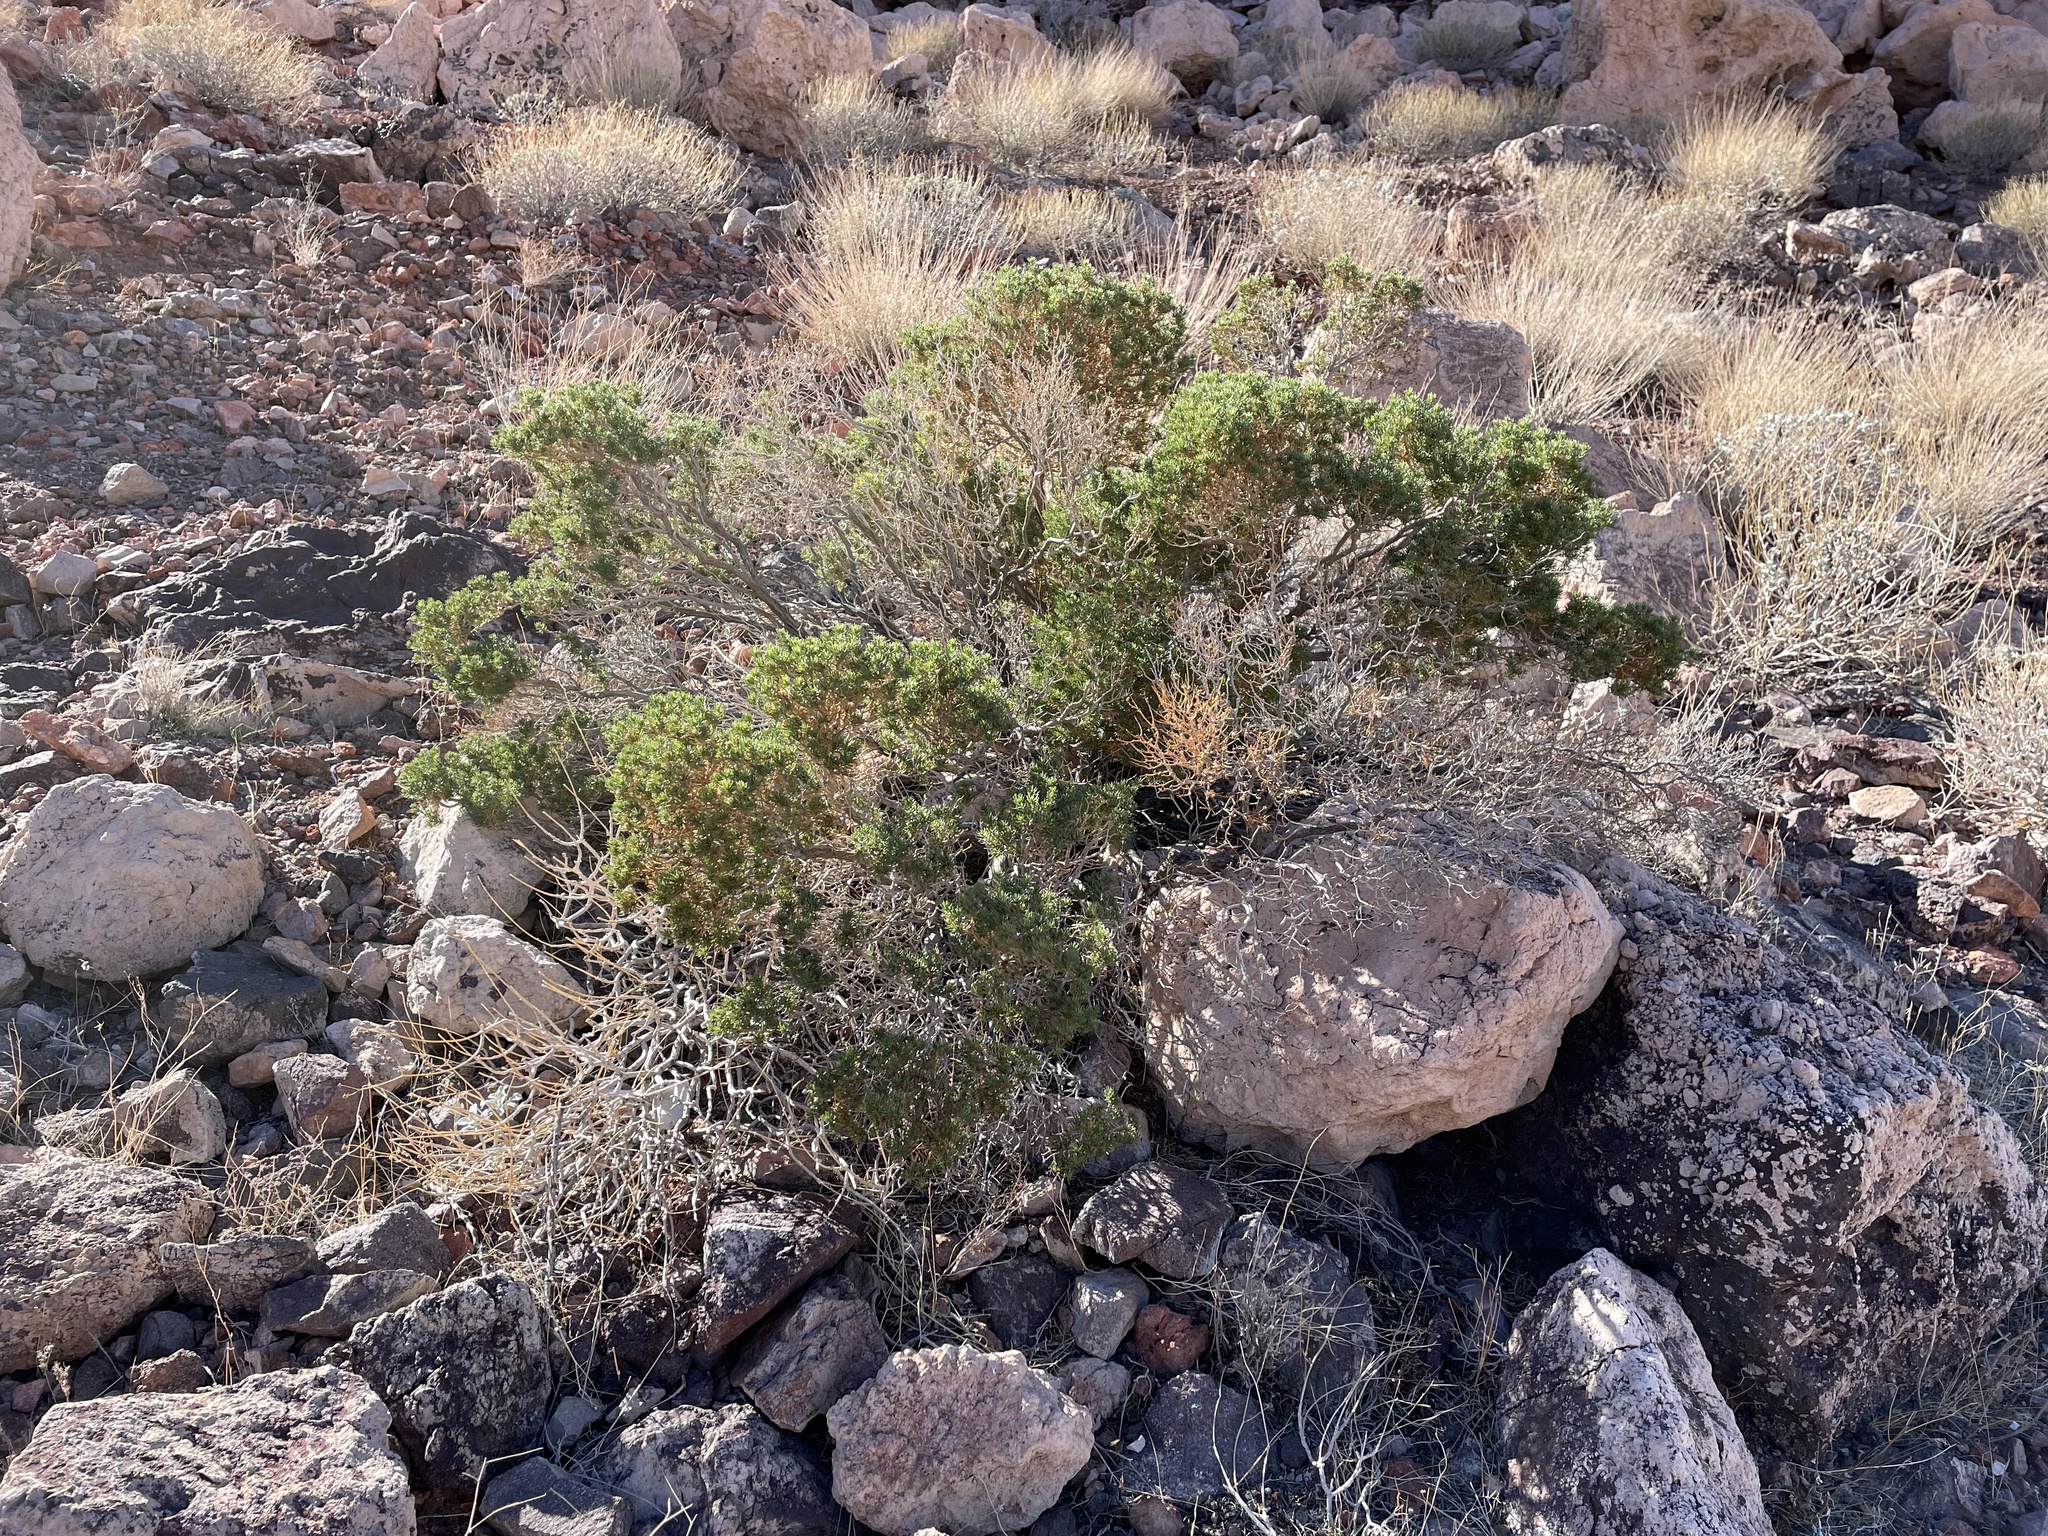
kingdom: Plantae
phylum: Tracheophyta
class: Magnoliopsida
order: Asterales
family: Asteraceae
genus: Peucephyllum
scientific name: Peucephyllum schottii
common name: Pygmy-cedar
